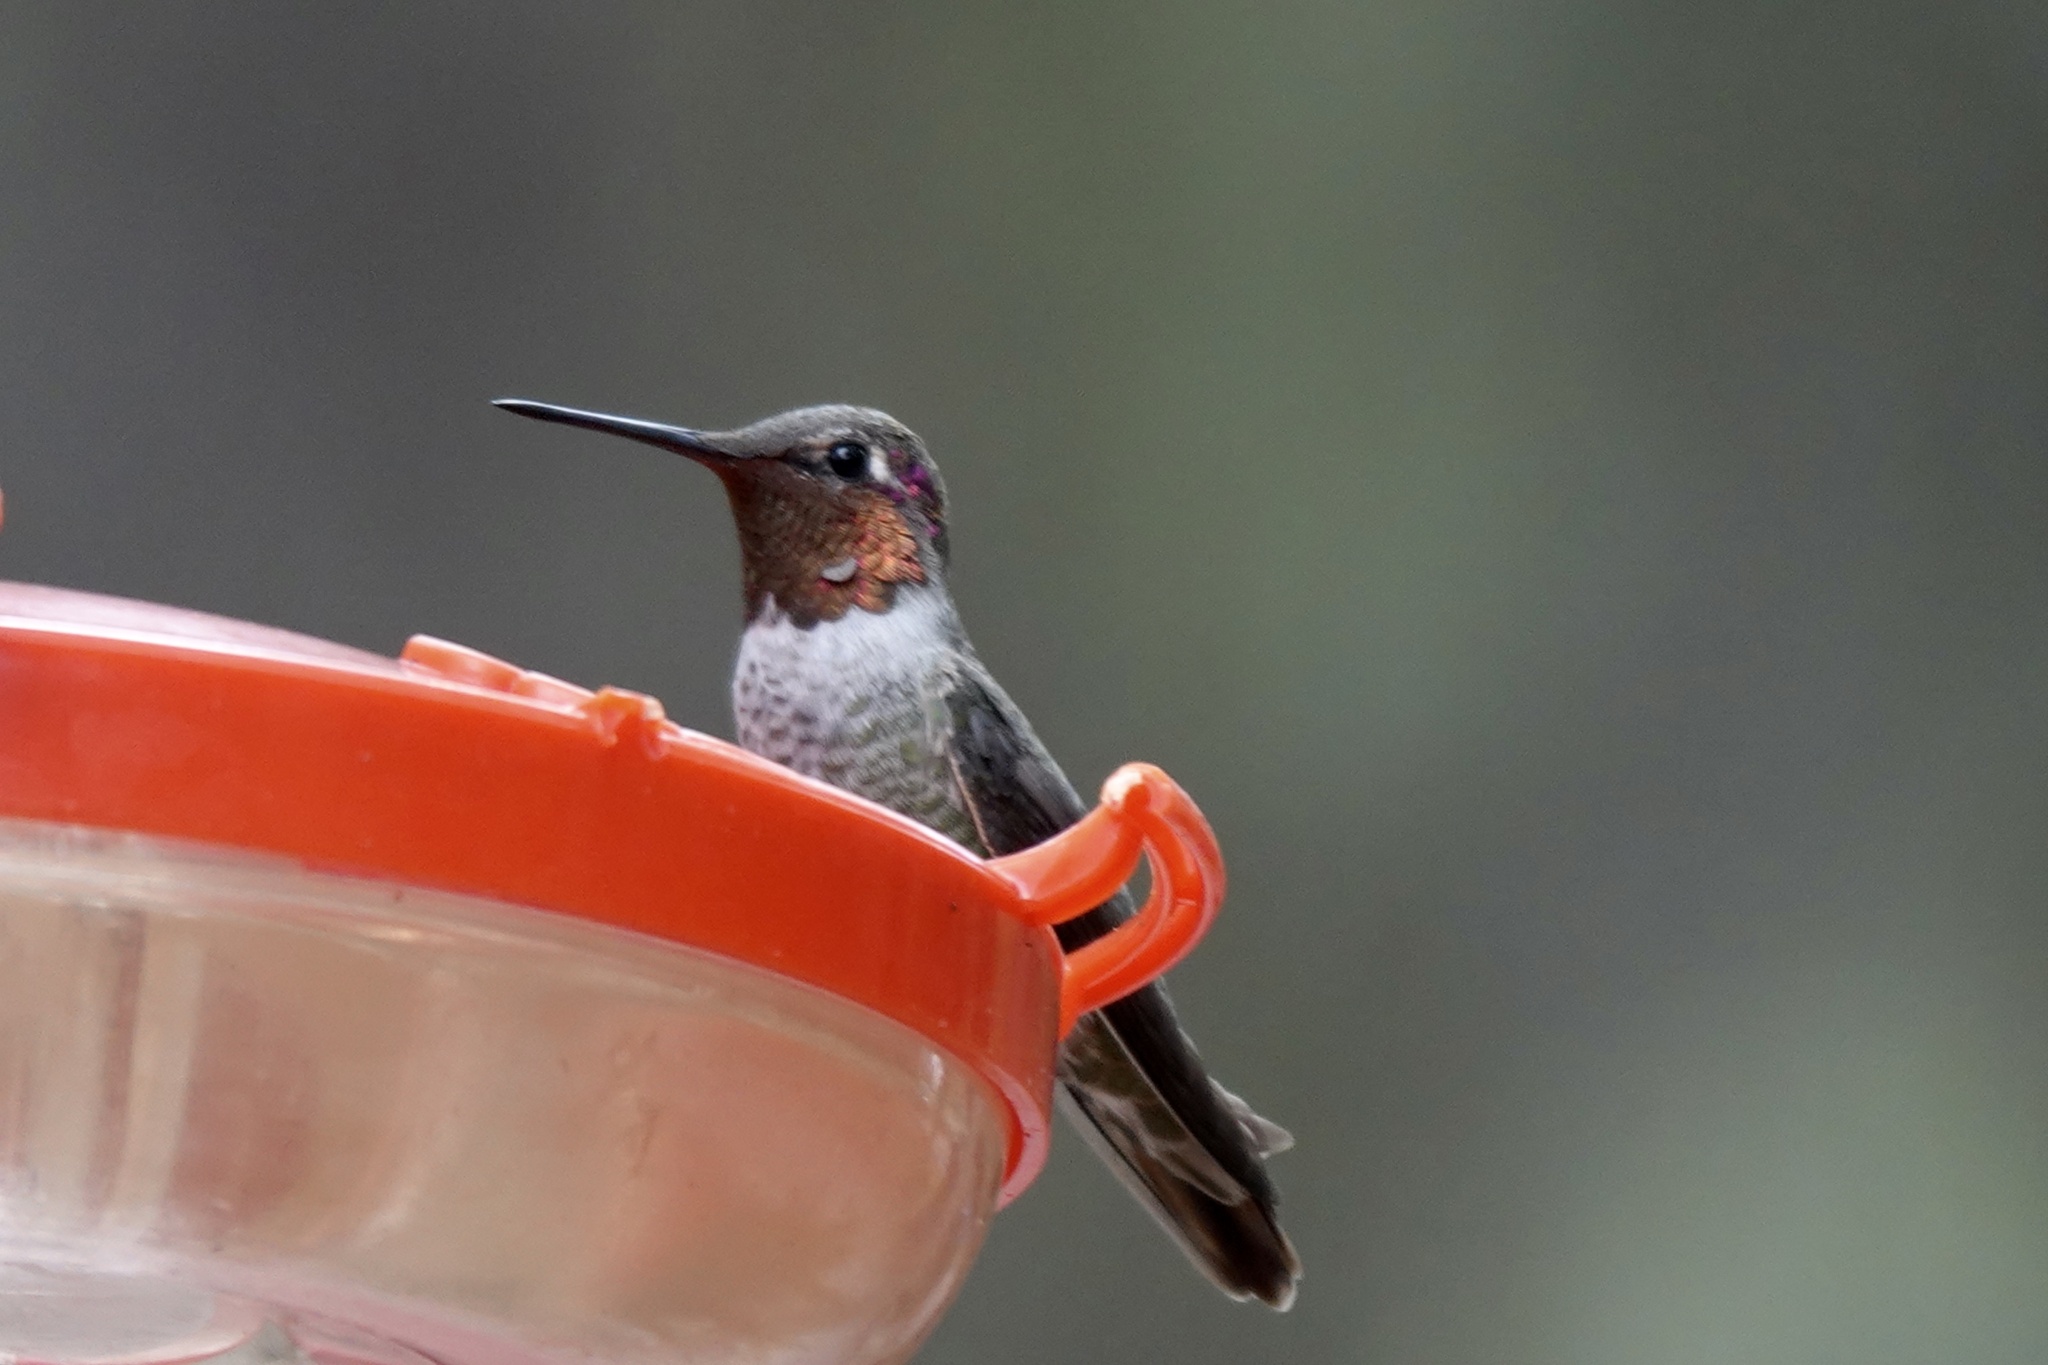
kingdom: Animalia
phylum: Chordata
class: Aves
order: Apodiformes
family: Trochilidae
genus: Calypte
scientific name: Calypte anna
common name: Anna's hummingbird
